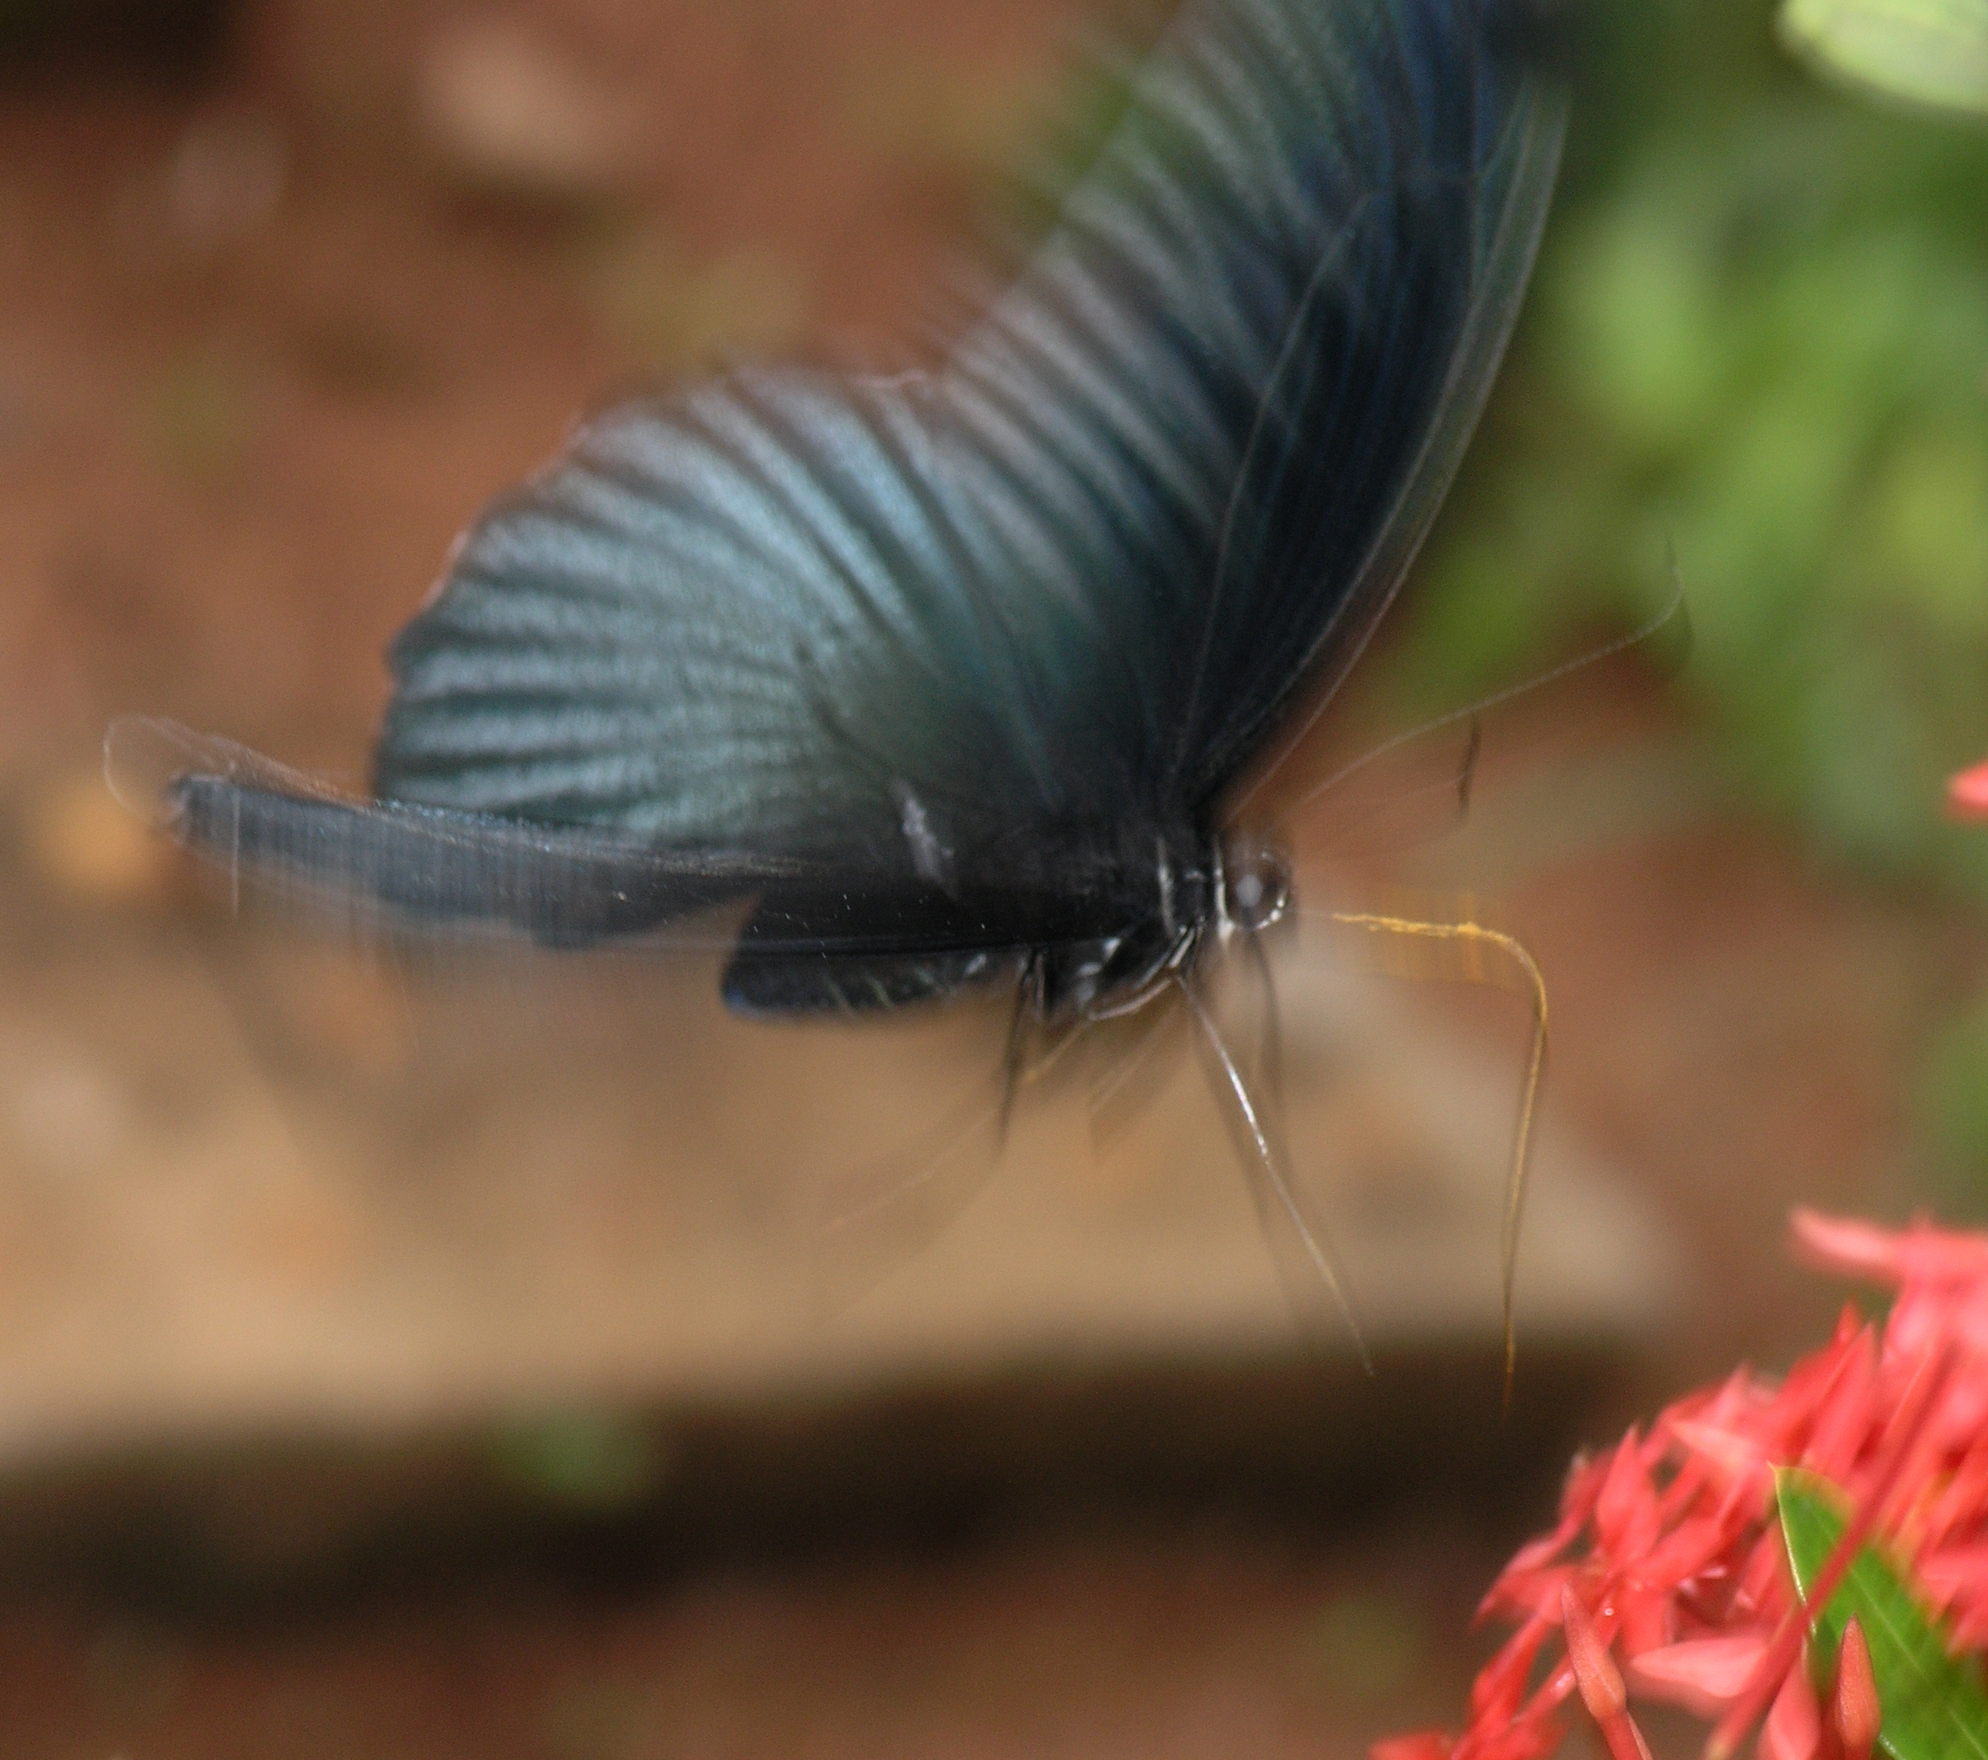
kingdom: Animalia
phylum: Arthropoda
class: Insecta
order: Lepidoptera
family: Papilionidae
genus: Papilio
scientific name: Papilio memnon
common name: Great mormon
